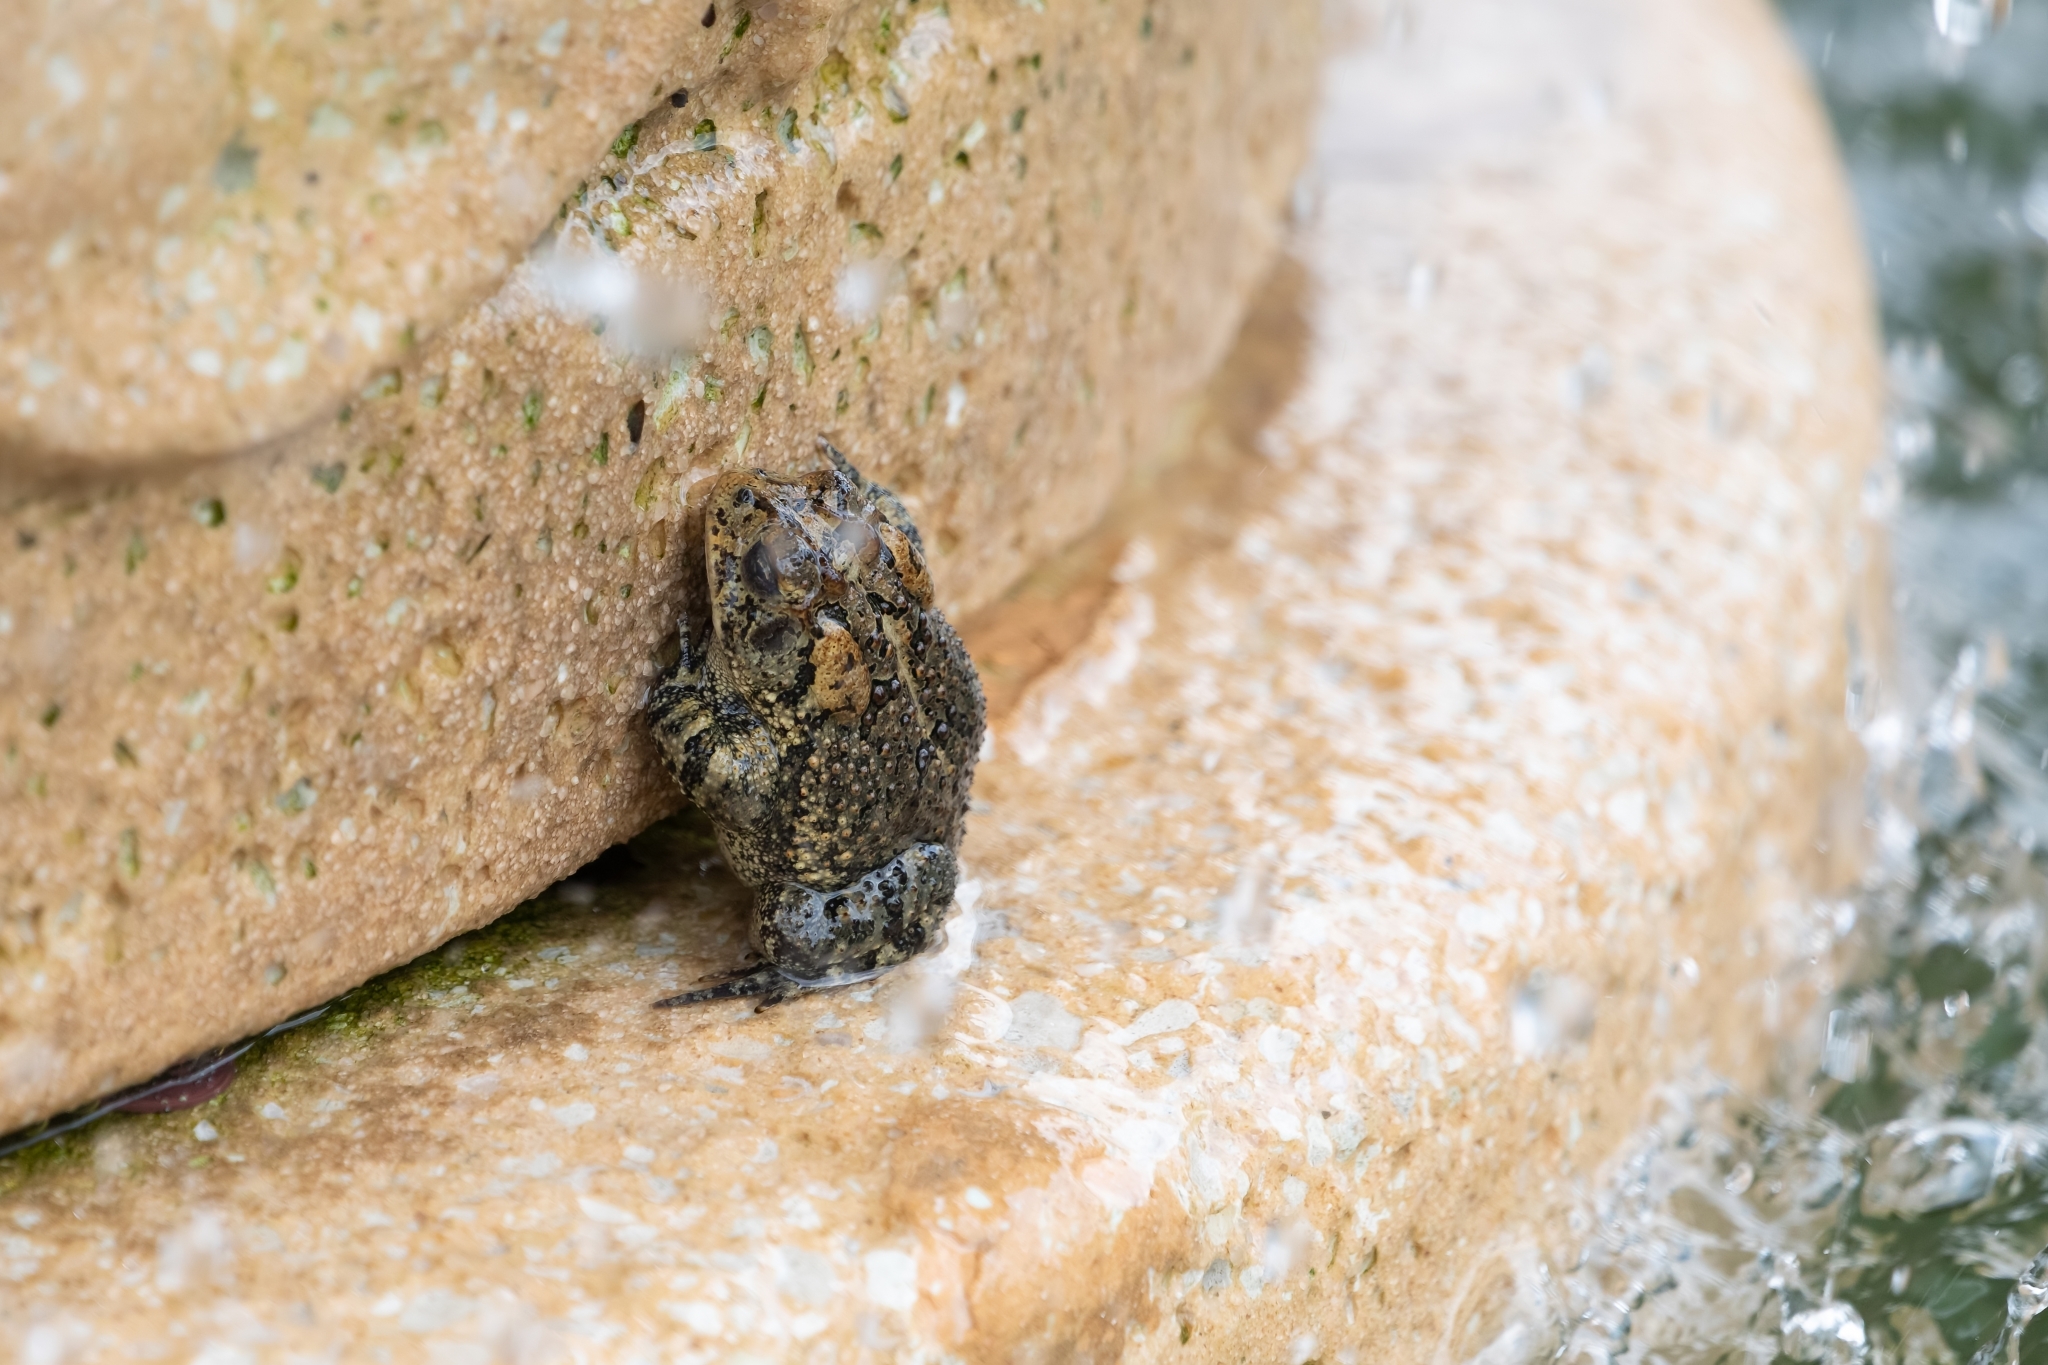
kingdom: Animalia
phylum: Chordata
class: Amphibia
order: Anura
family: Bufonidae
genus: Anaxyrus
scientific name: Anaxyrus terrestris
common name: Southern toad
